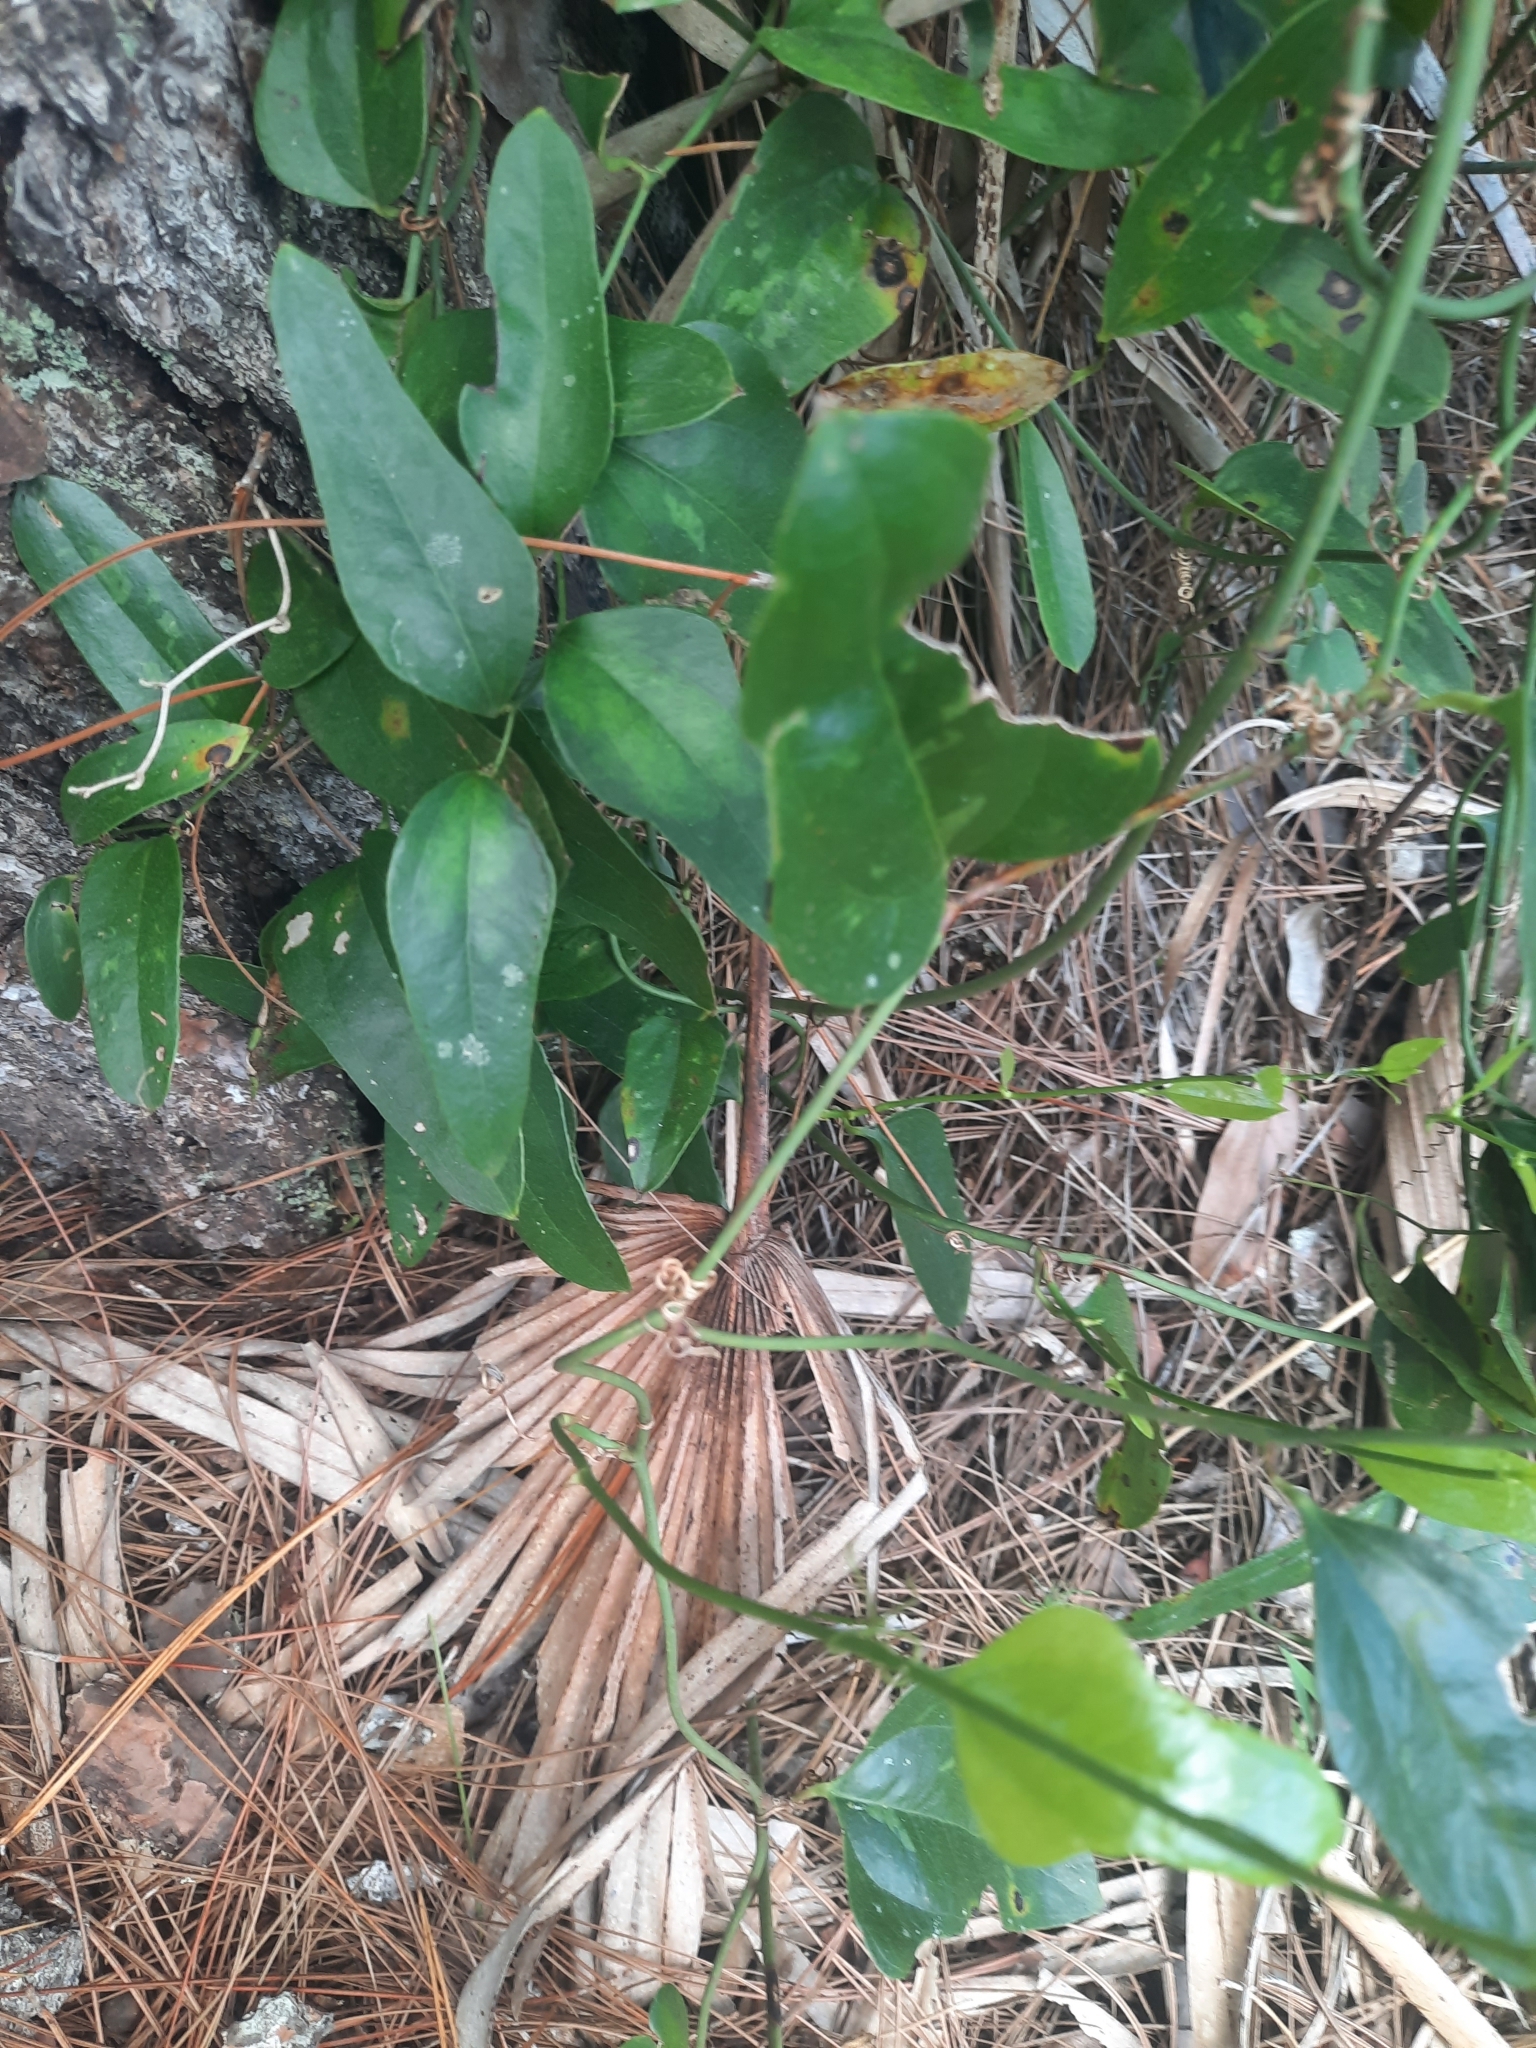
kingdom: Plantae
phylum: Tracheophyta
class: Liliopsida
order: Liliales
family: Smilacaceae
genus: Smilax
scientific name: Smilax auriculata
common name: Wild bamboo
